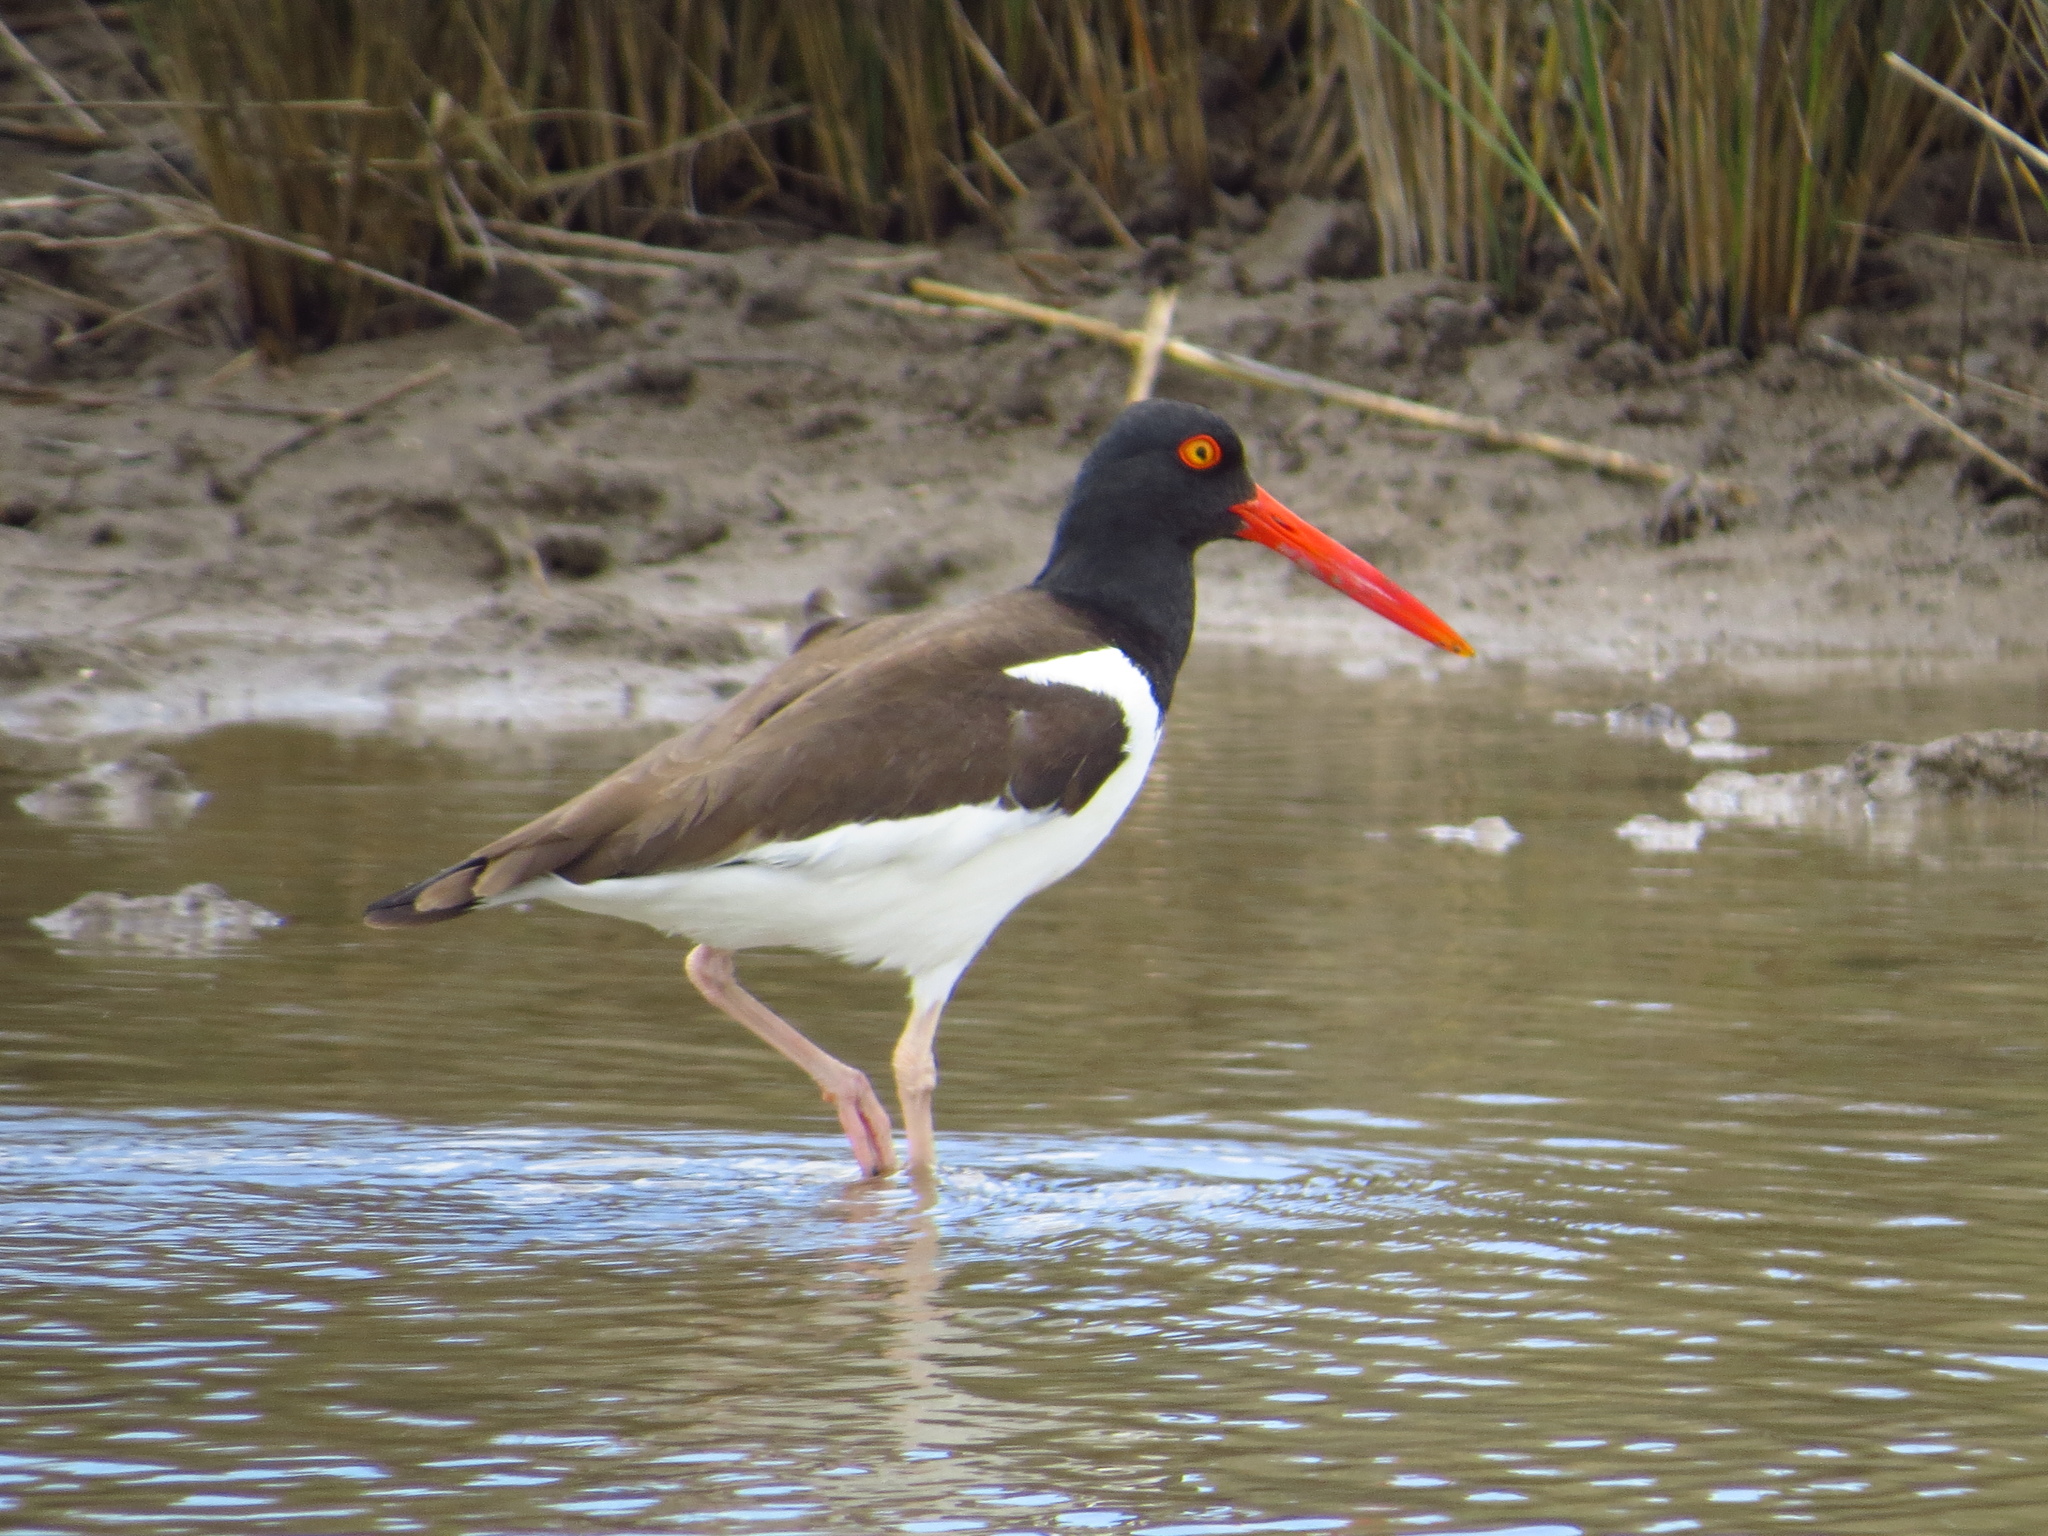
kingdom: Animalia
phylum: Chordata
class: Aves
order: Charadriiformes
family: Haematopodidae
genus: Haematopus
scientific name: Haematopus palliatus
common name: American oystercatcher
